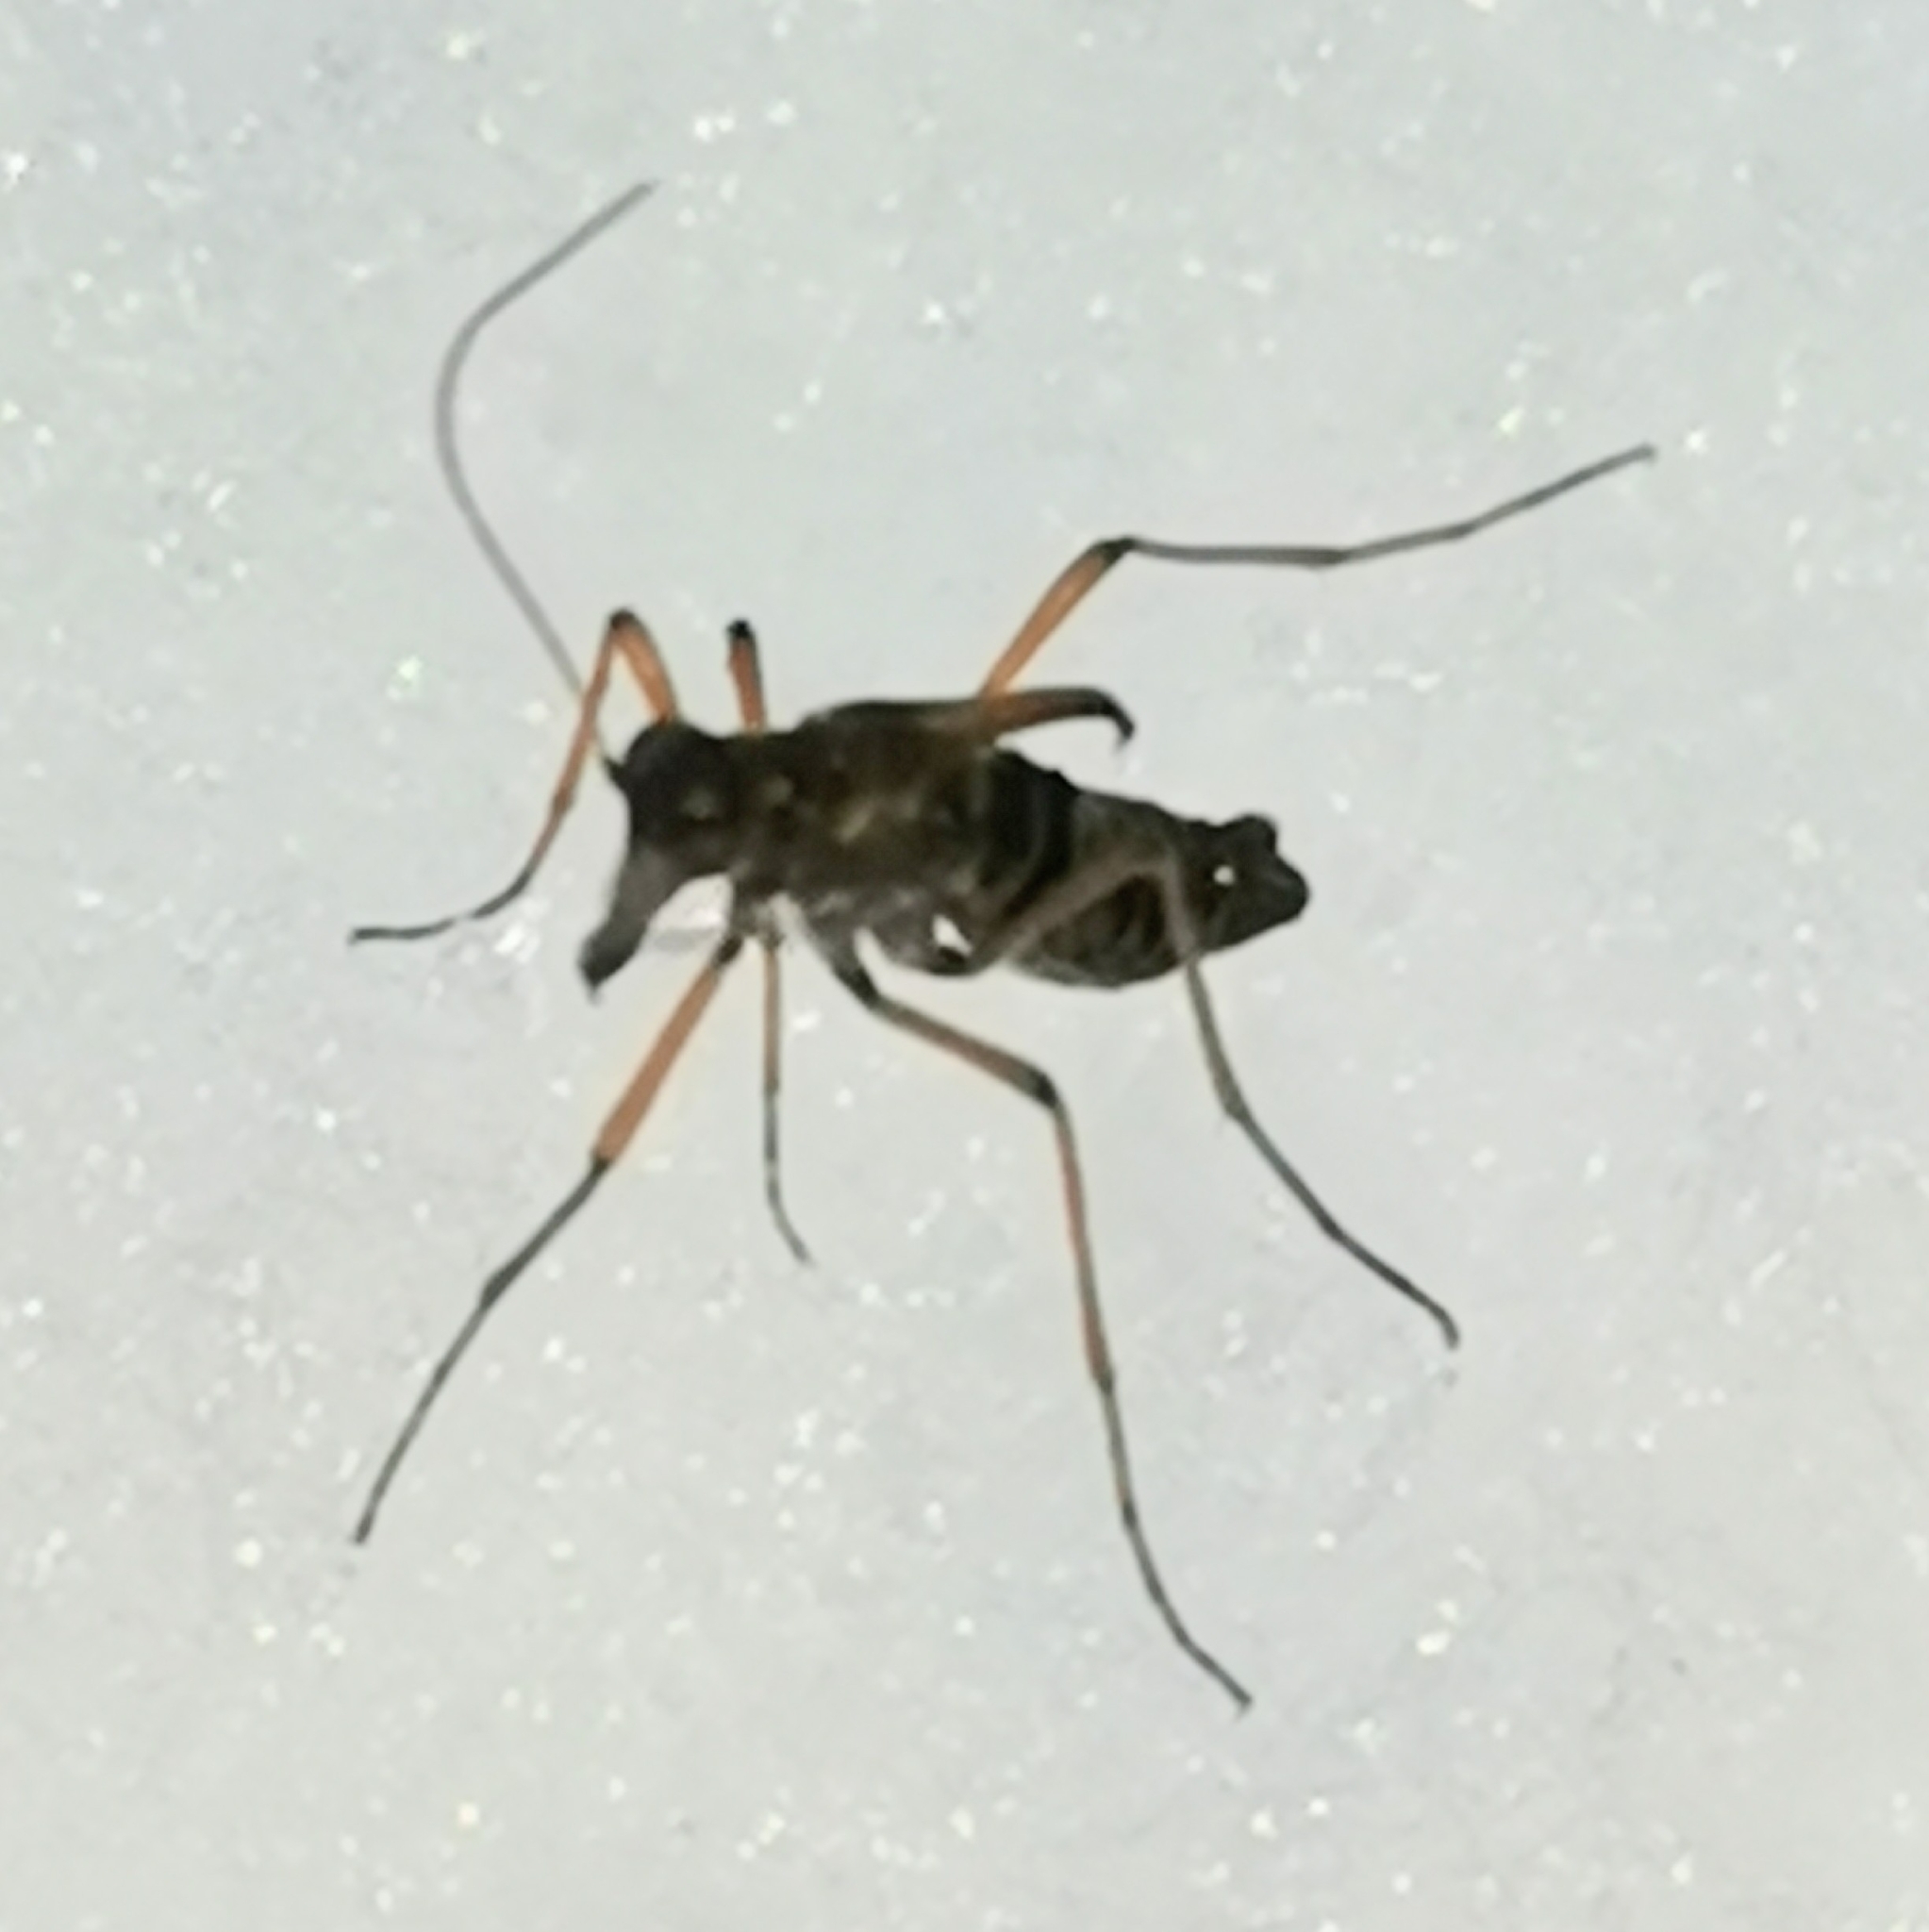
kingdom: Animalia
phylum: Arthropoda
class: Insecta
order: Mecoptera
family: Boreidae
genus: Boreus
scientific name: Boreus westwoodi
